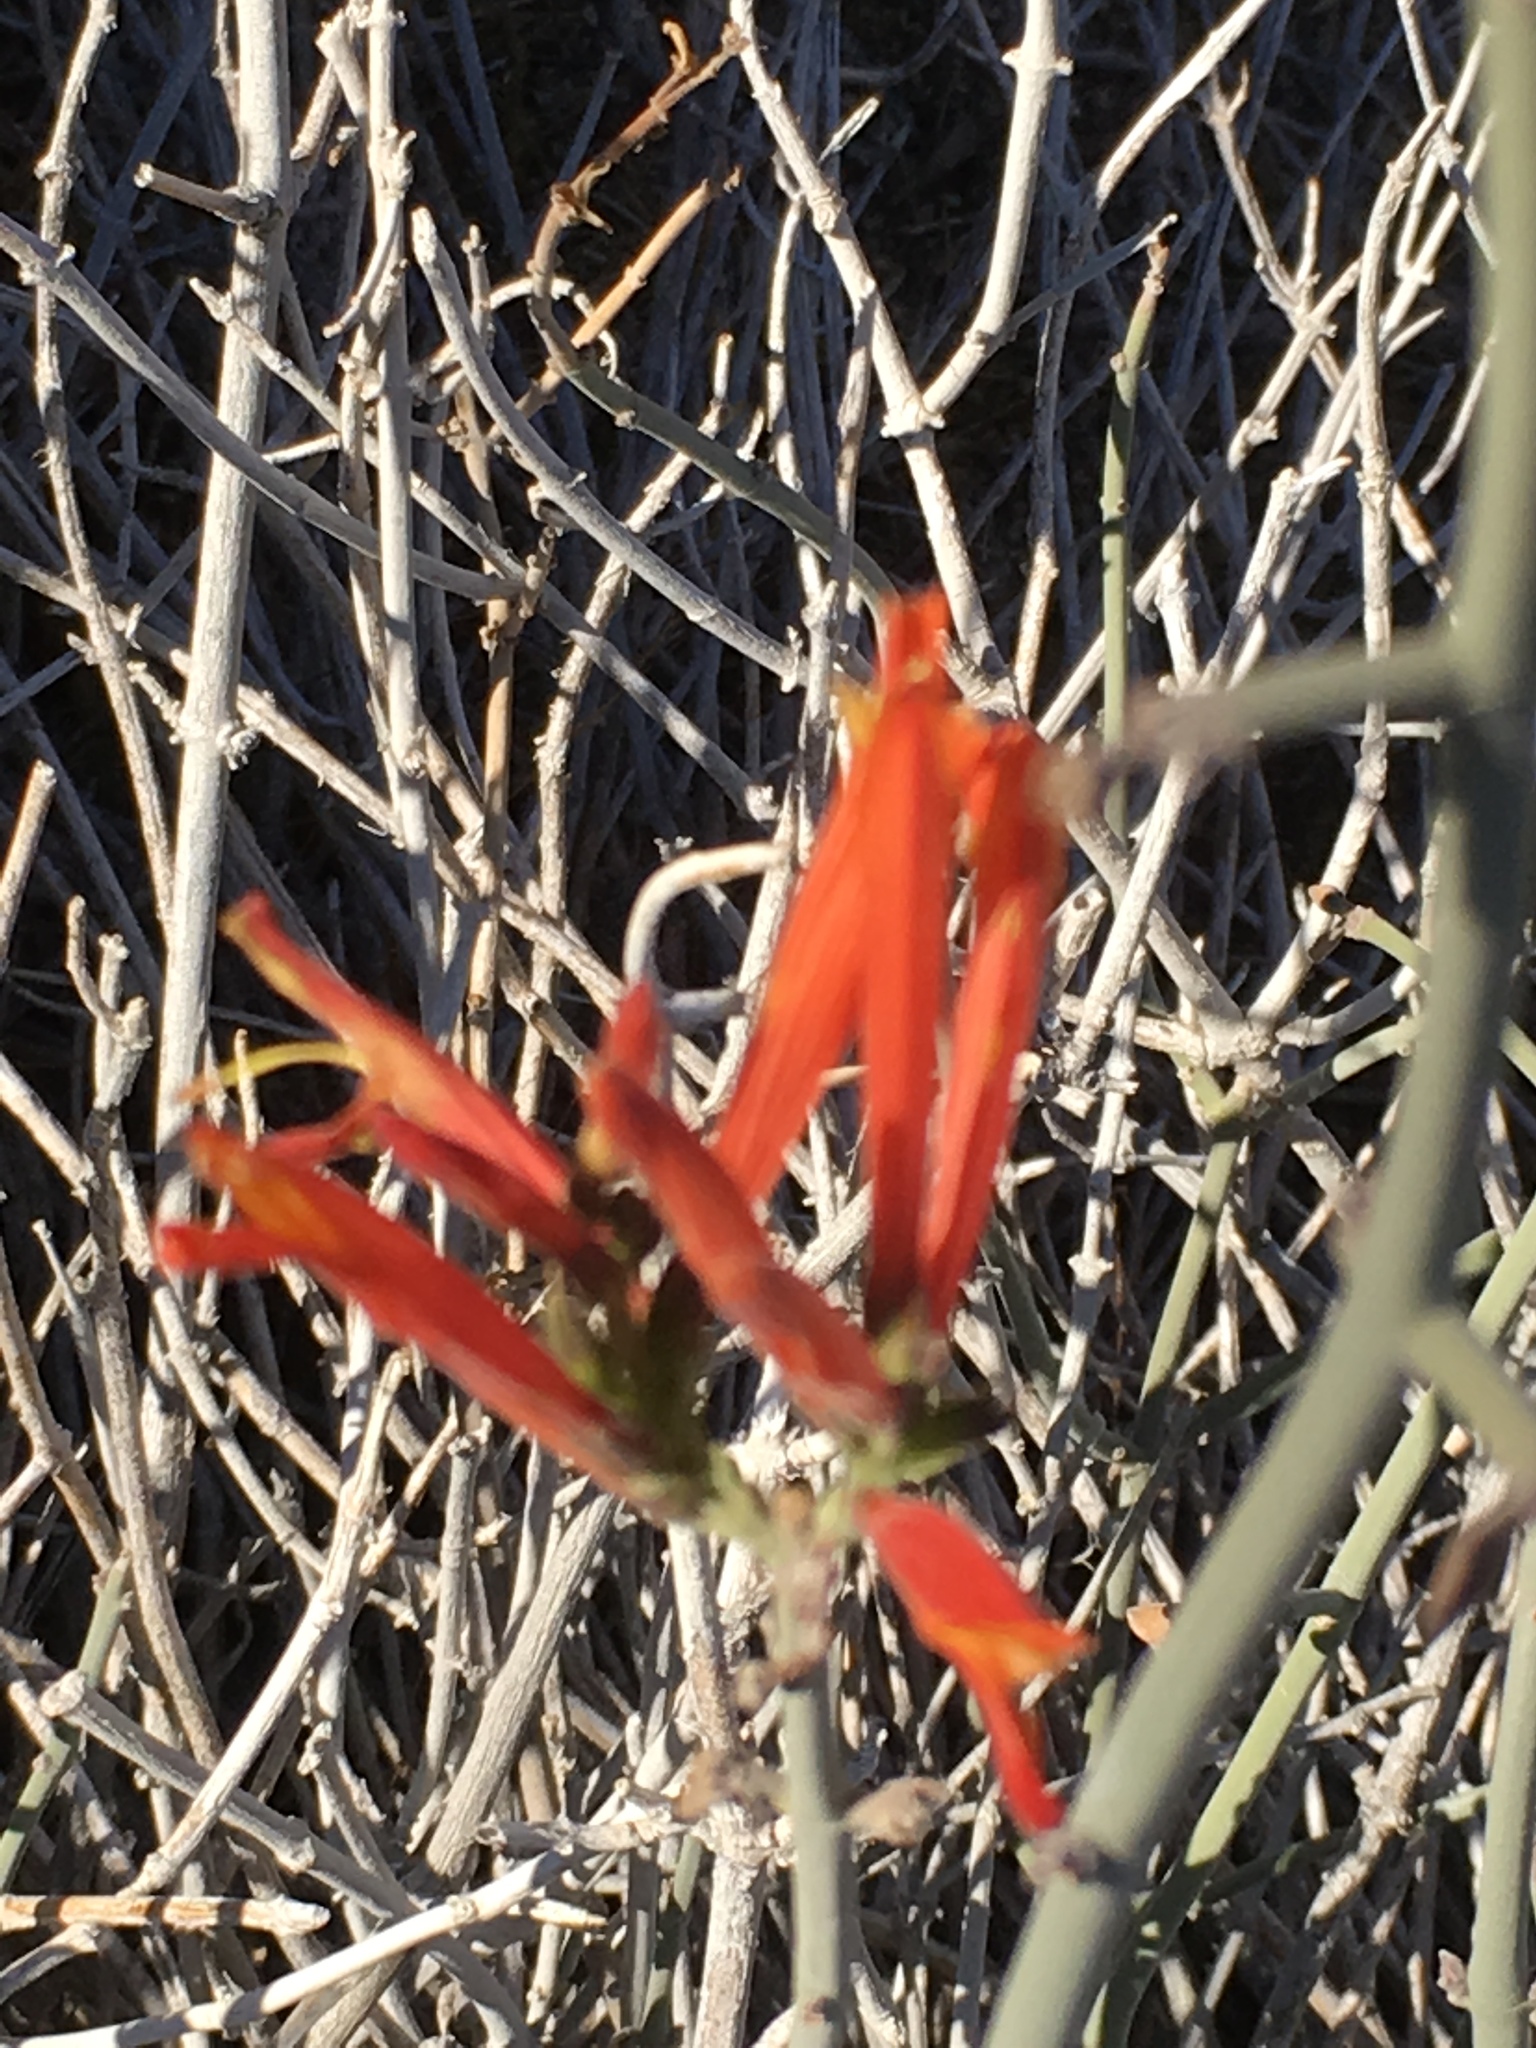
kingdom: Plantae
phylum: Tracheophyta
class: Magnoliopsida
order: Lamiales
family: Acanthaceae
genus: Justicia
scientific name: Justicia californica
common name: Chuparosa-honeysuckle
